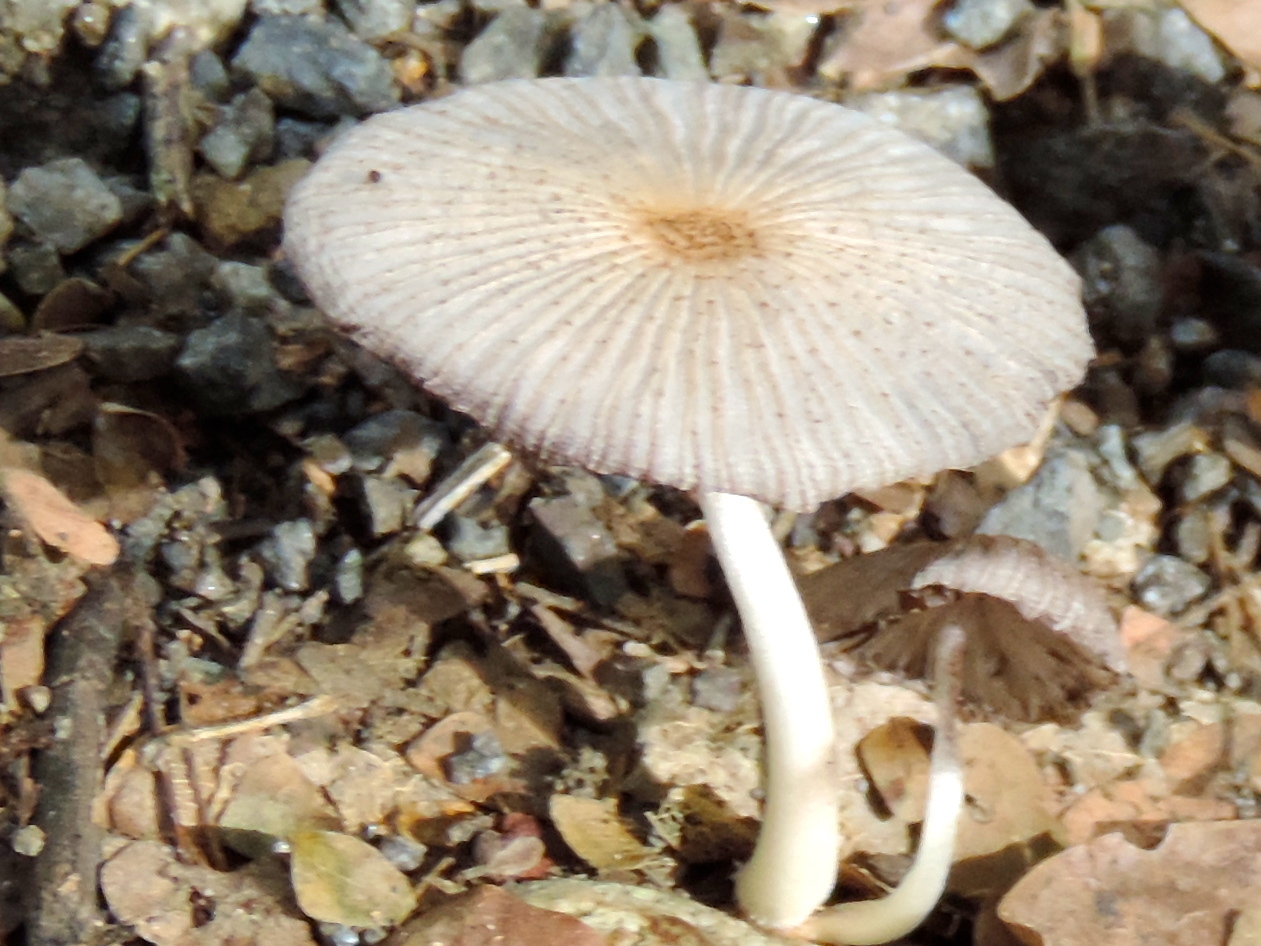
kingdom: Fungi
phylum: Basidiomycota
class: Agaricomycetes
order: Agaricales
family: Psathyrellaceae
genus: Parasola
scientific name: Parasola auricoma
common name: Goldenhaired inkcap
